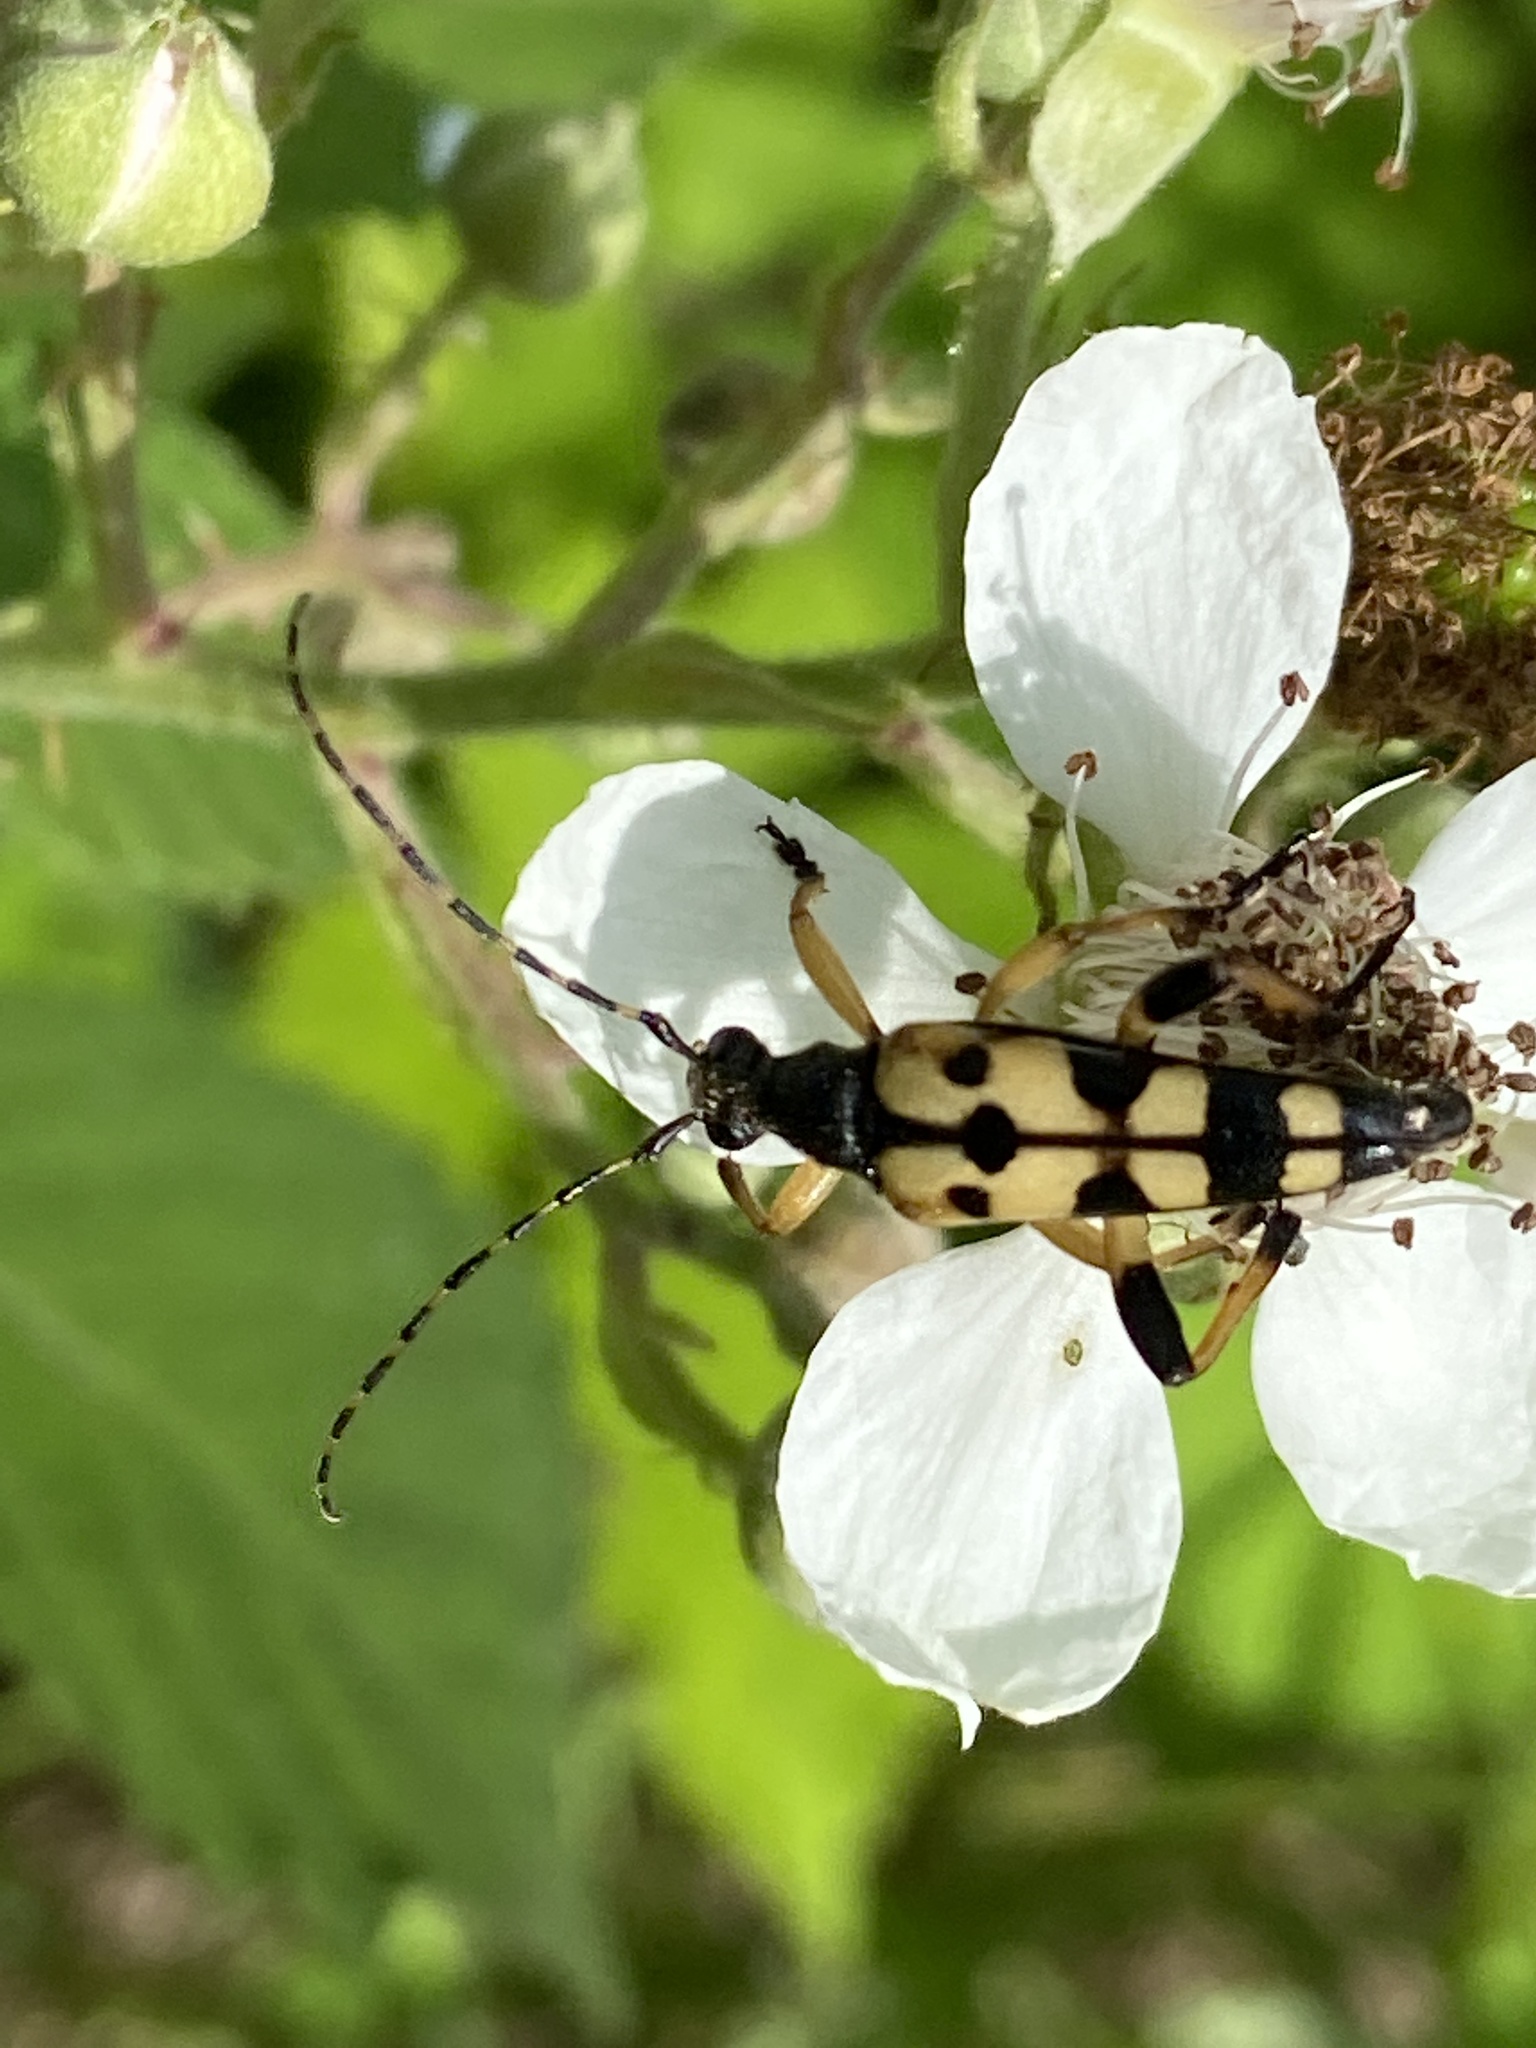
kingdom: Animalia
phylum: Arthropoda
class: Insecta
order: Coleoptera
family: Cerambycidae
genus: Rutpela
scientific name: Rutpela maculata
